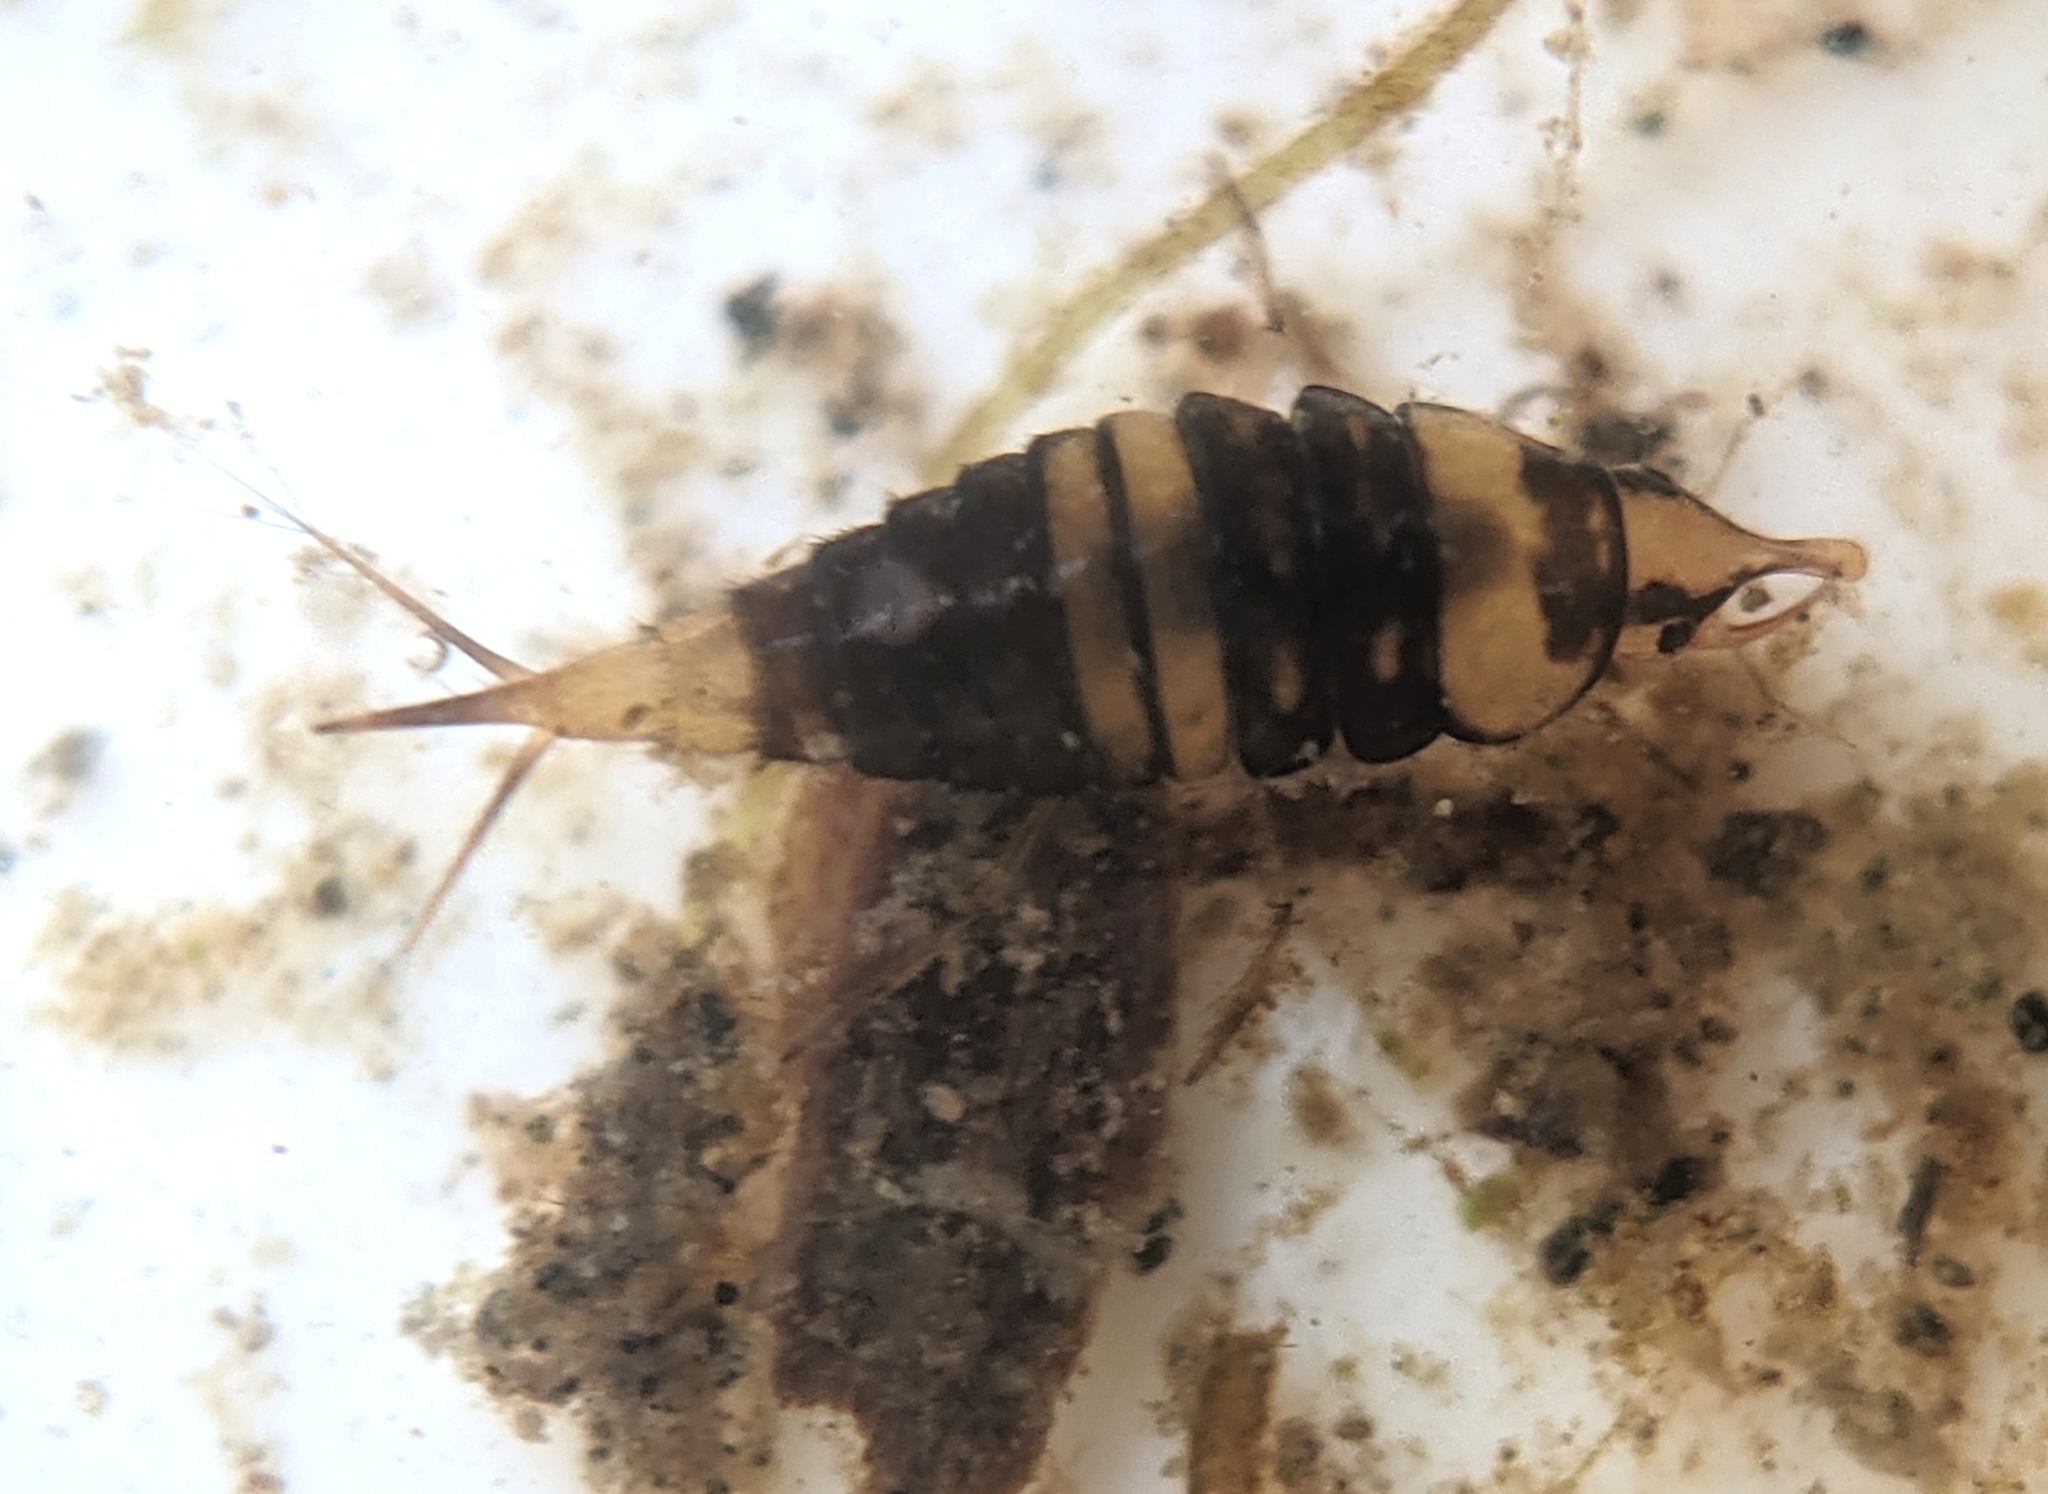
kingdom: Animalia
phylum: Arthropoda
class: Insecta
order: Coleoptera
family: Dytiscidae
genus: Hyphydrus
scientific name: Hyphydrus ovatus
